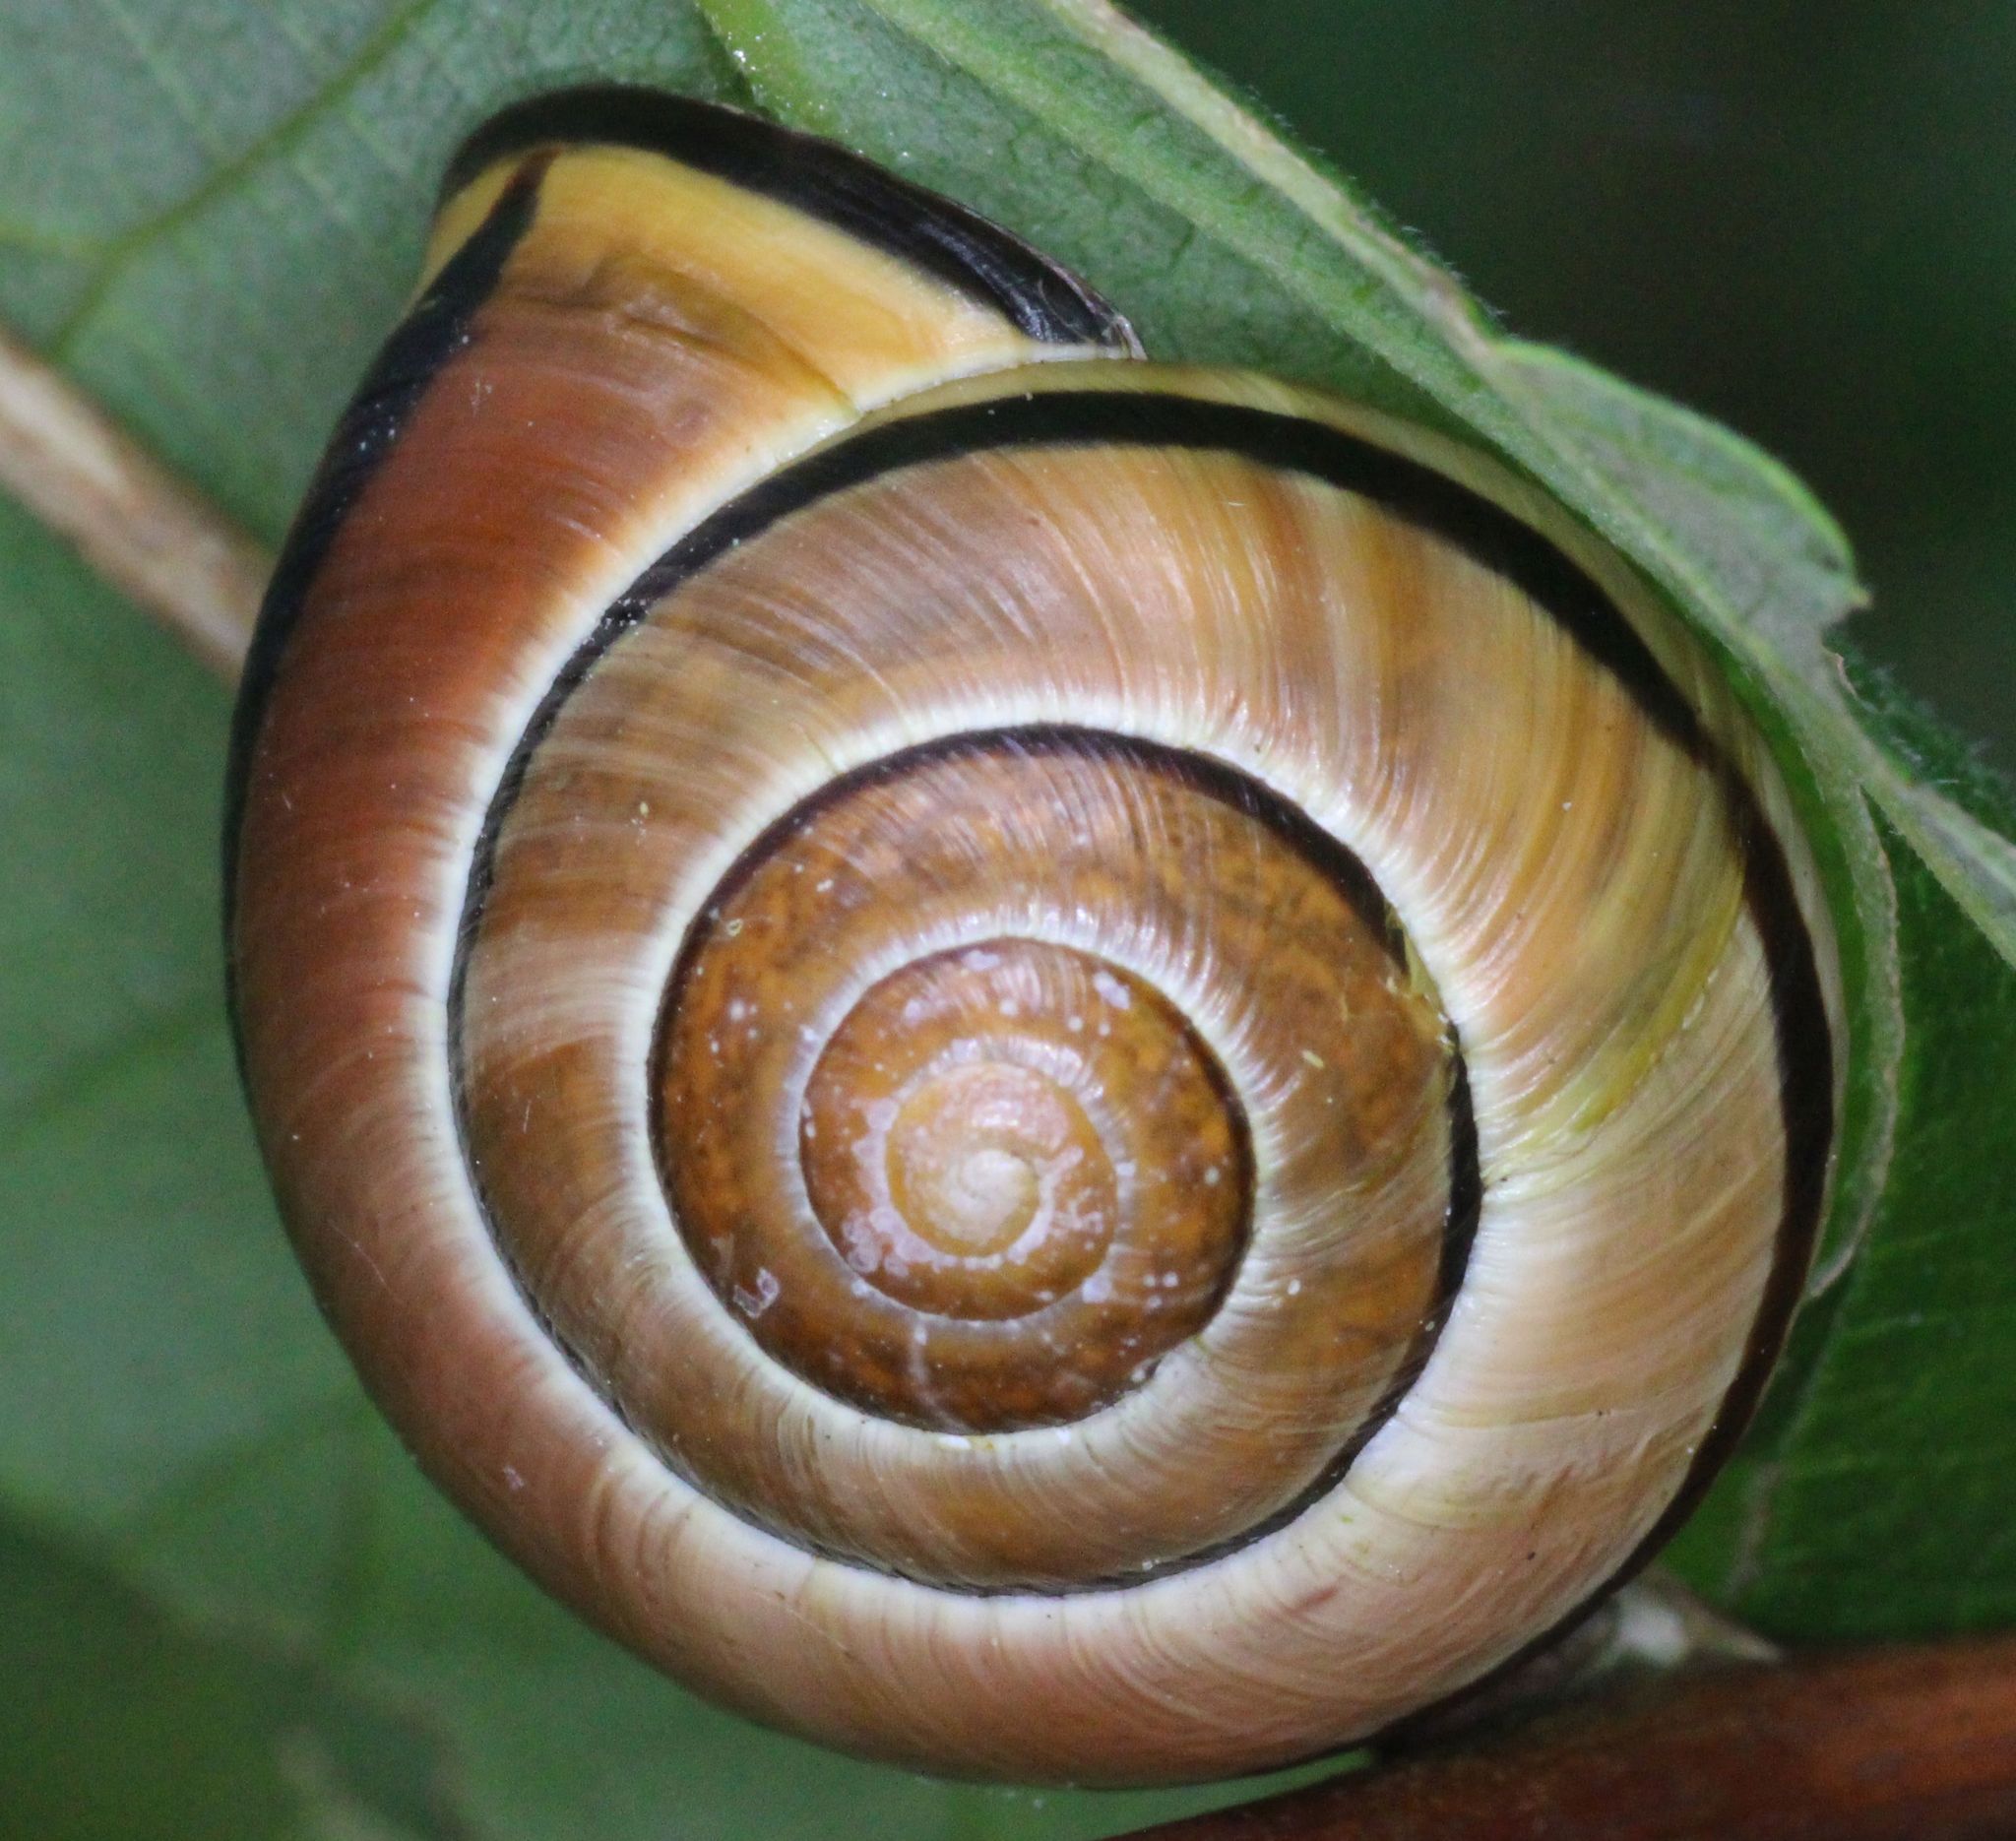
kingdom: Animalia
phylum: Mollusca
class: Gastropoda
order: Stylommatophora
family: Helicidae
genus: Cepaea
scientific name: Cepaea nemoralis
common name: Grovesnail
